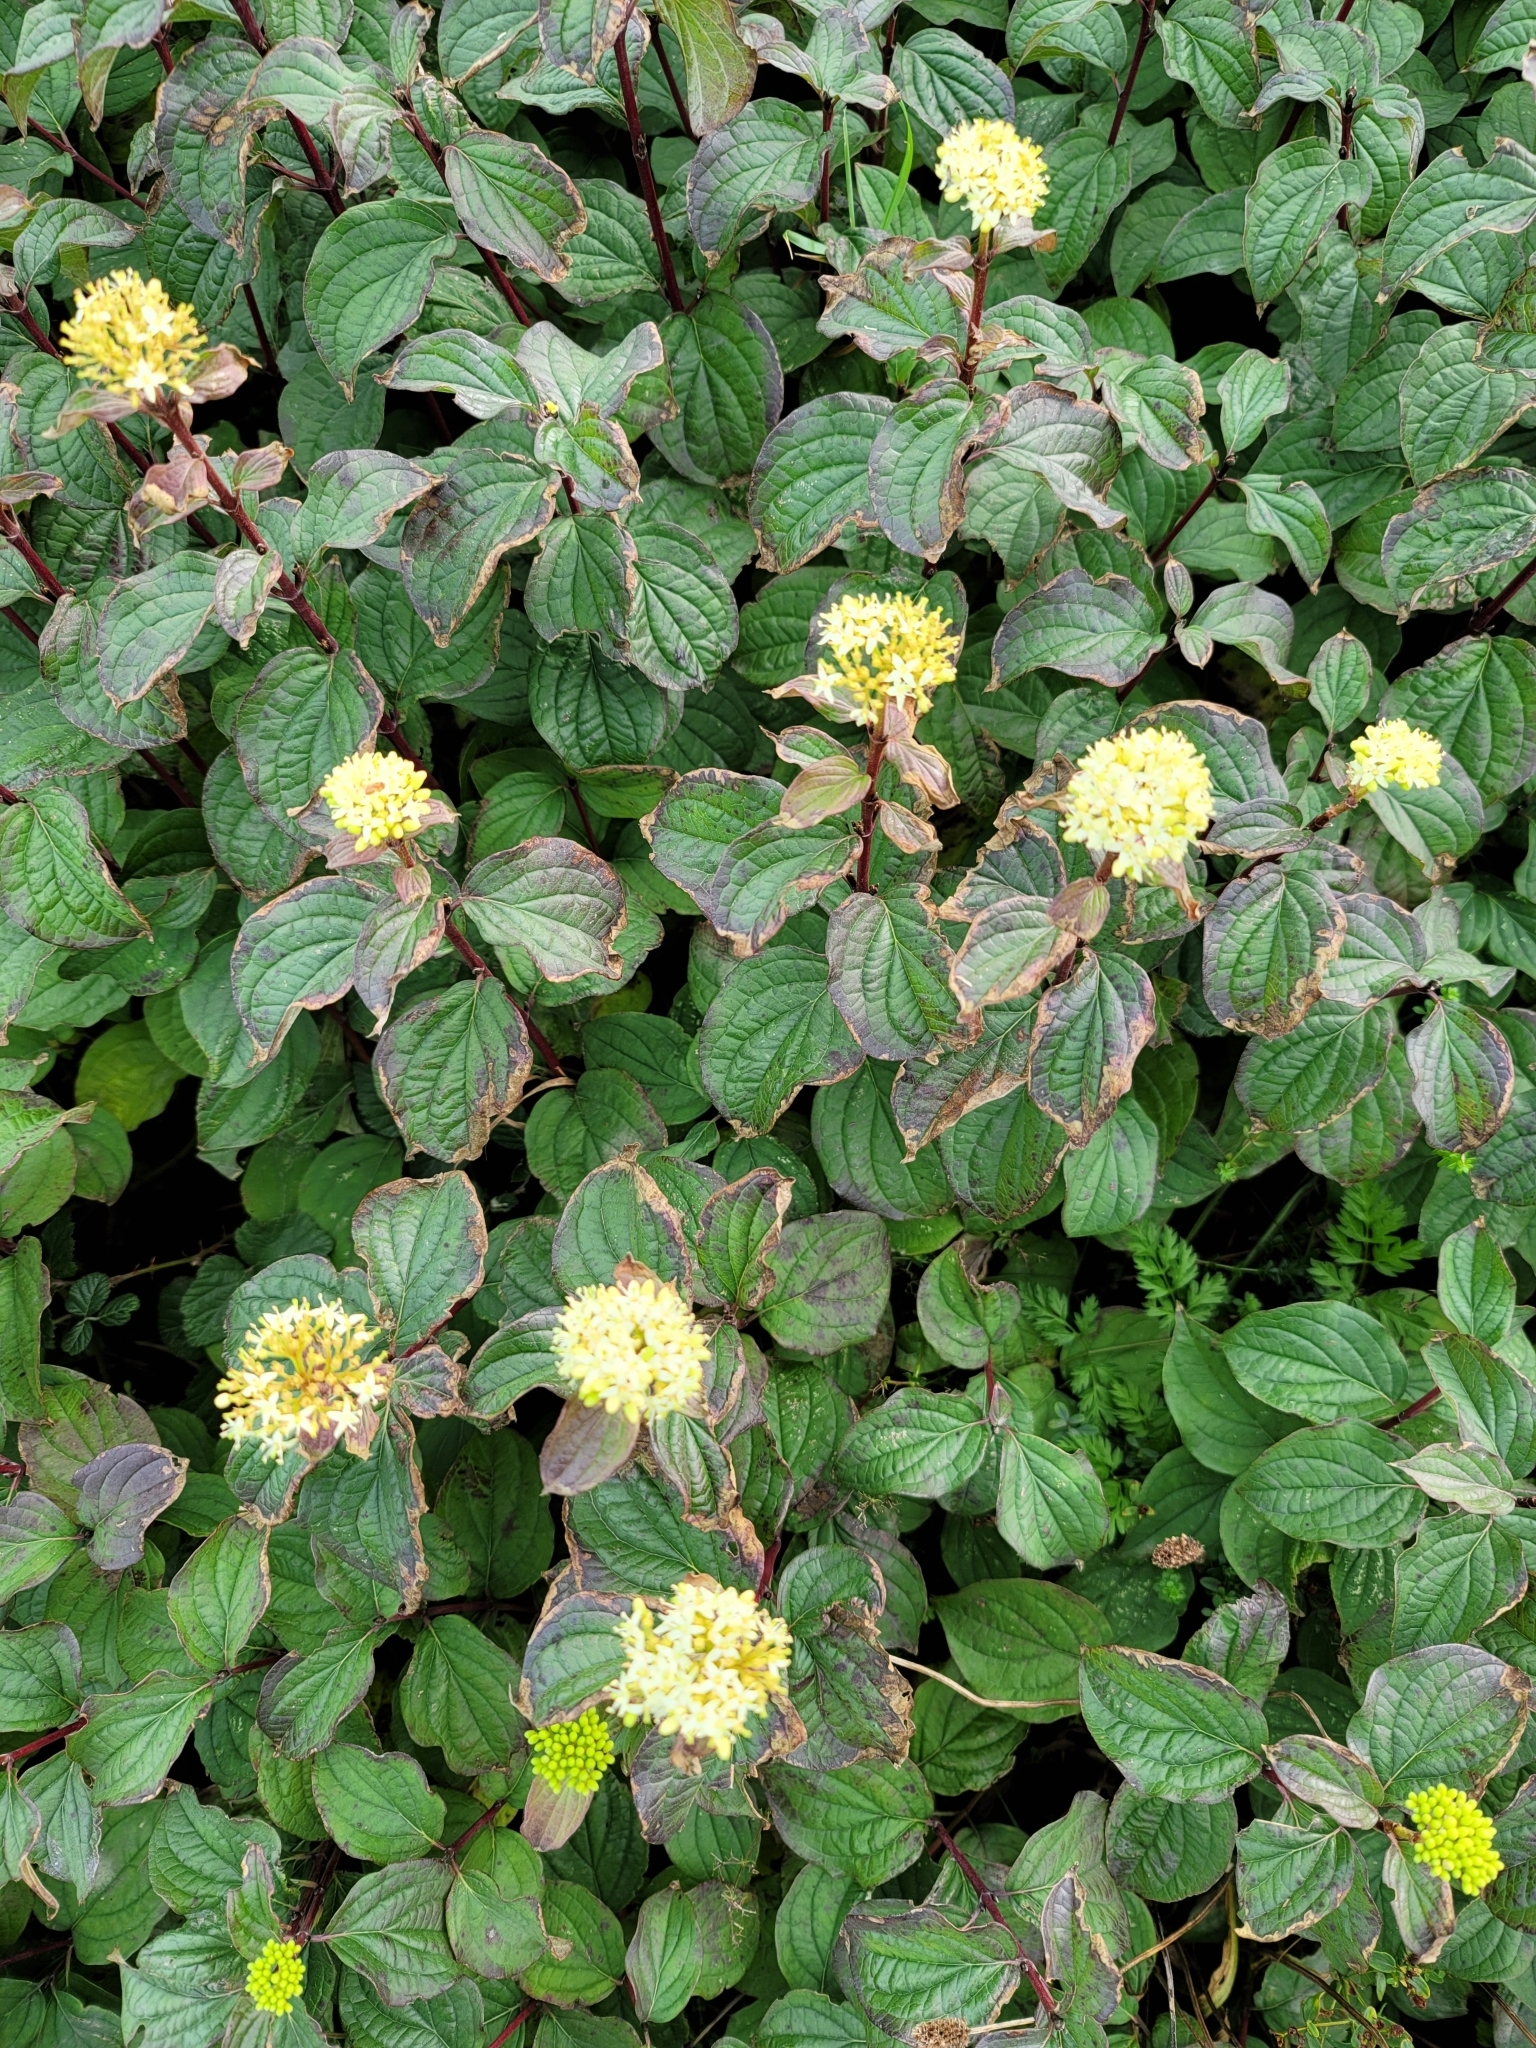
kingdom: Plantae
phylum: Tracheophyta
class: Magnoliopsida
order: Cornales
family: Cornaceae
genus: Cornus
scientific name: Cornus sanguinea
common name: Dogwood
